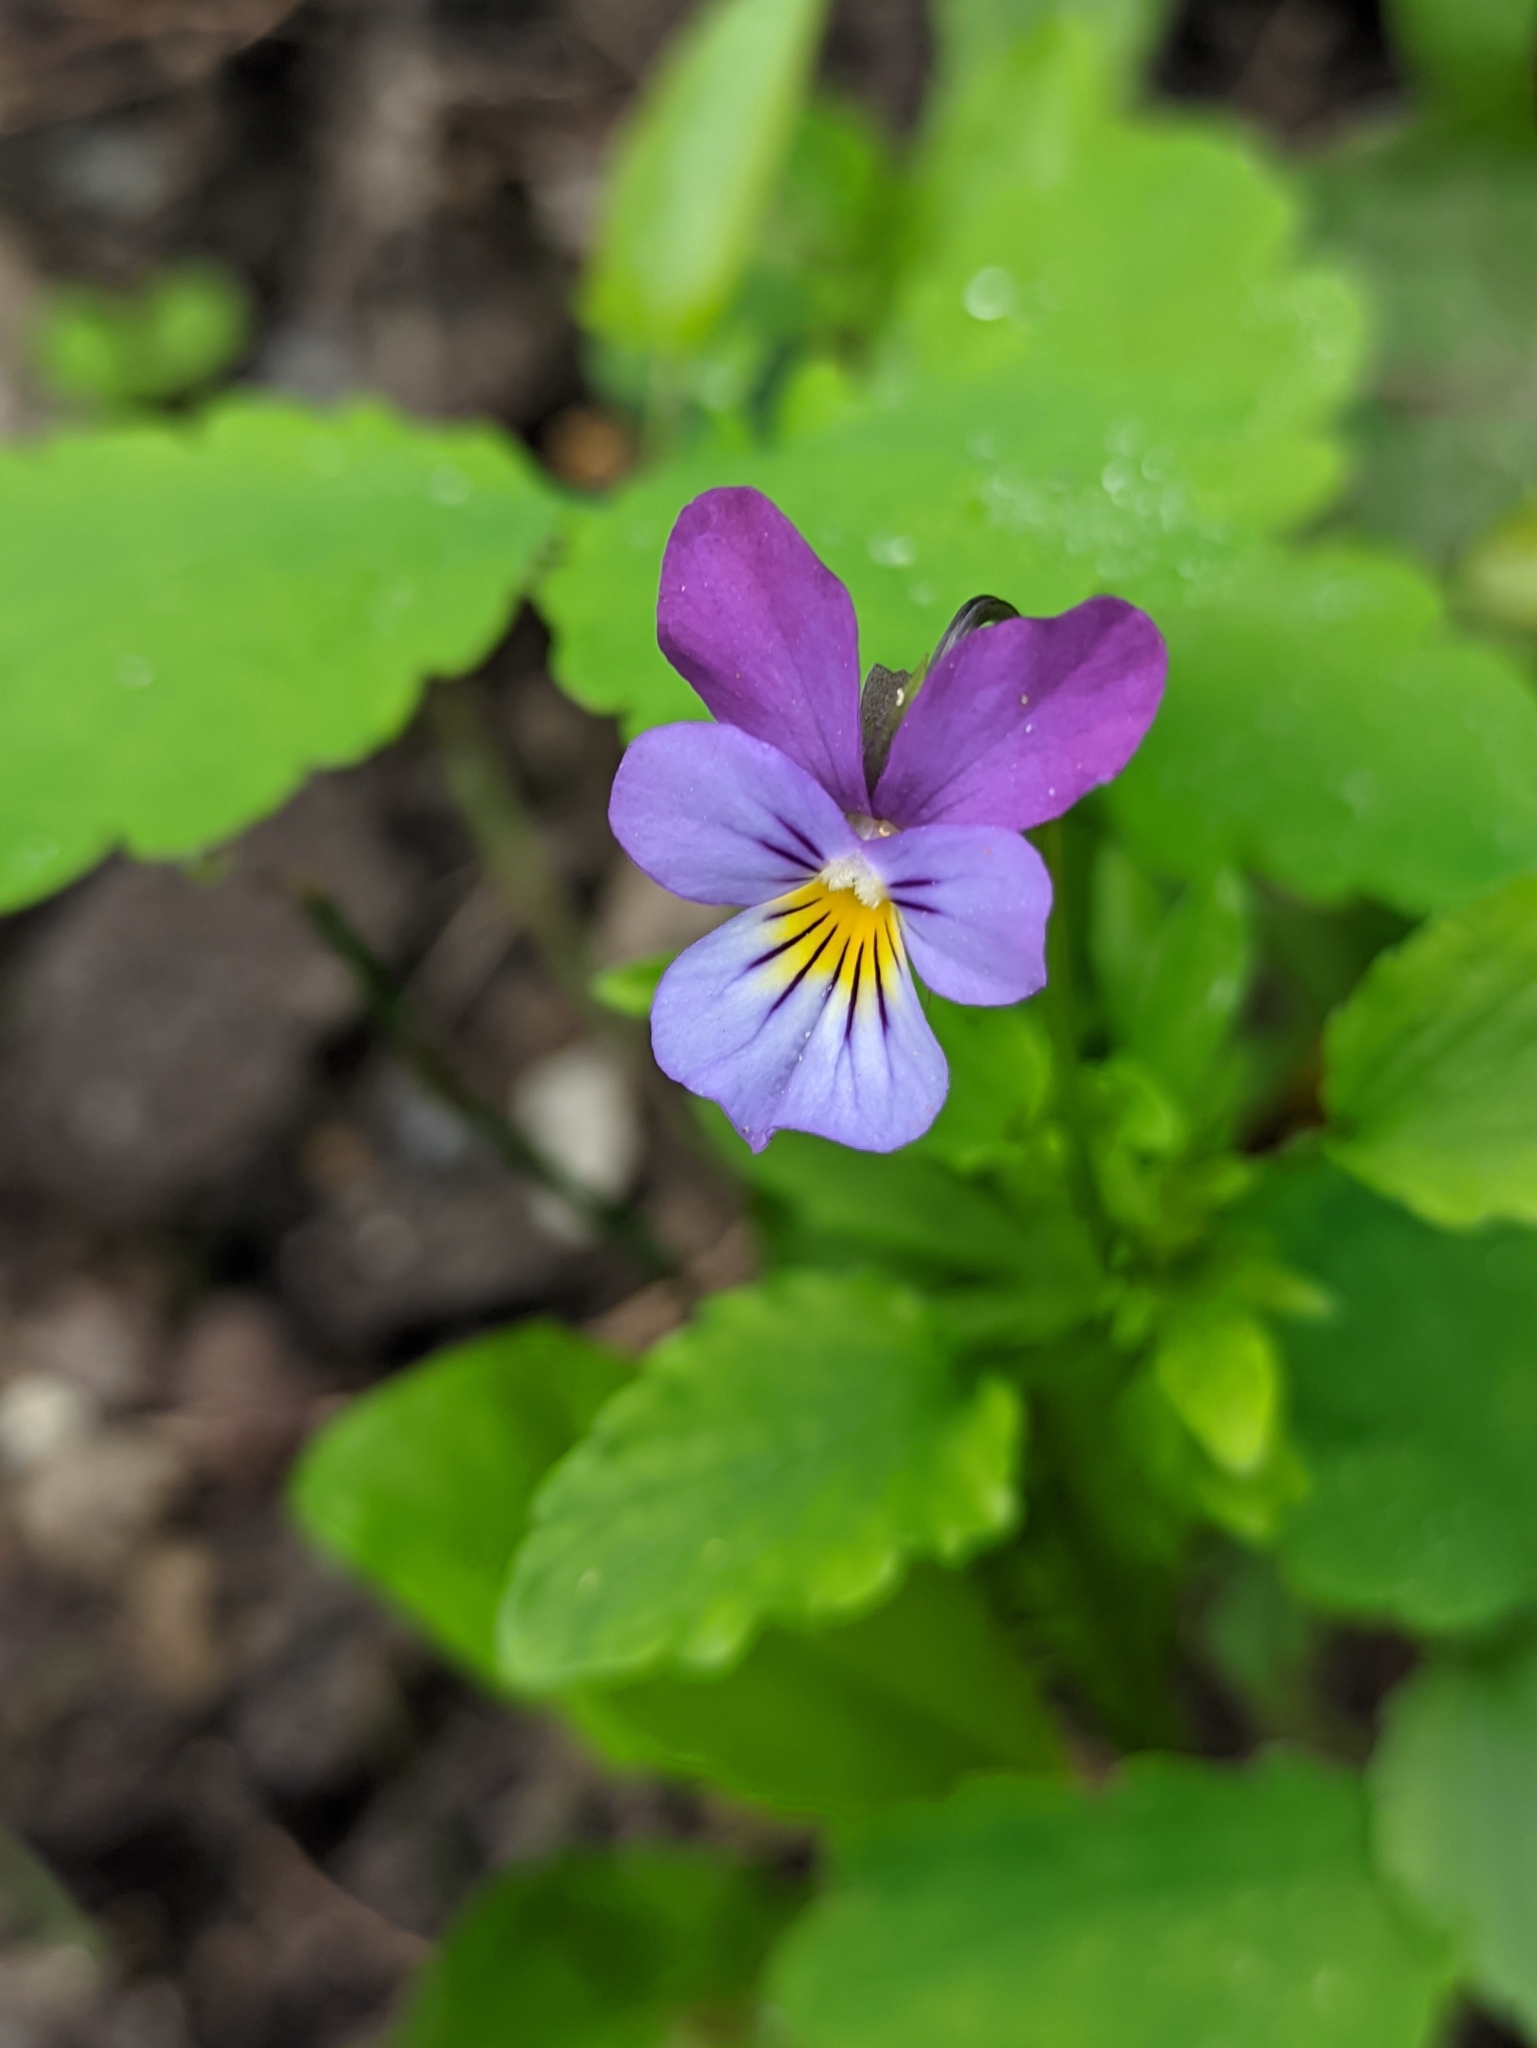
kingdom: Plantae
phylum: Tracheophyta
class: Magnoliopsida
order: Malpighiales
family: Violaceae
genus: Viola
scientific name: Viola tricolor
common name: Pansy
